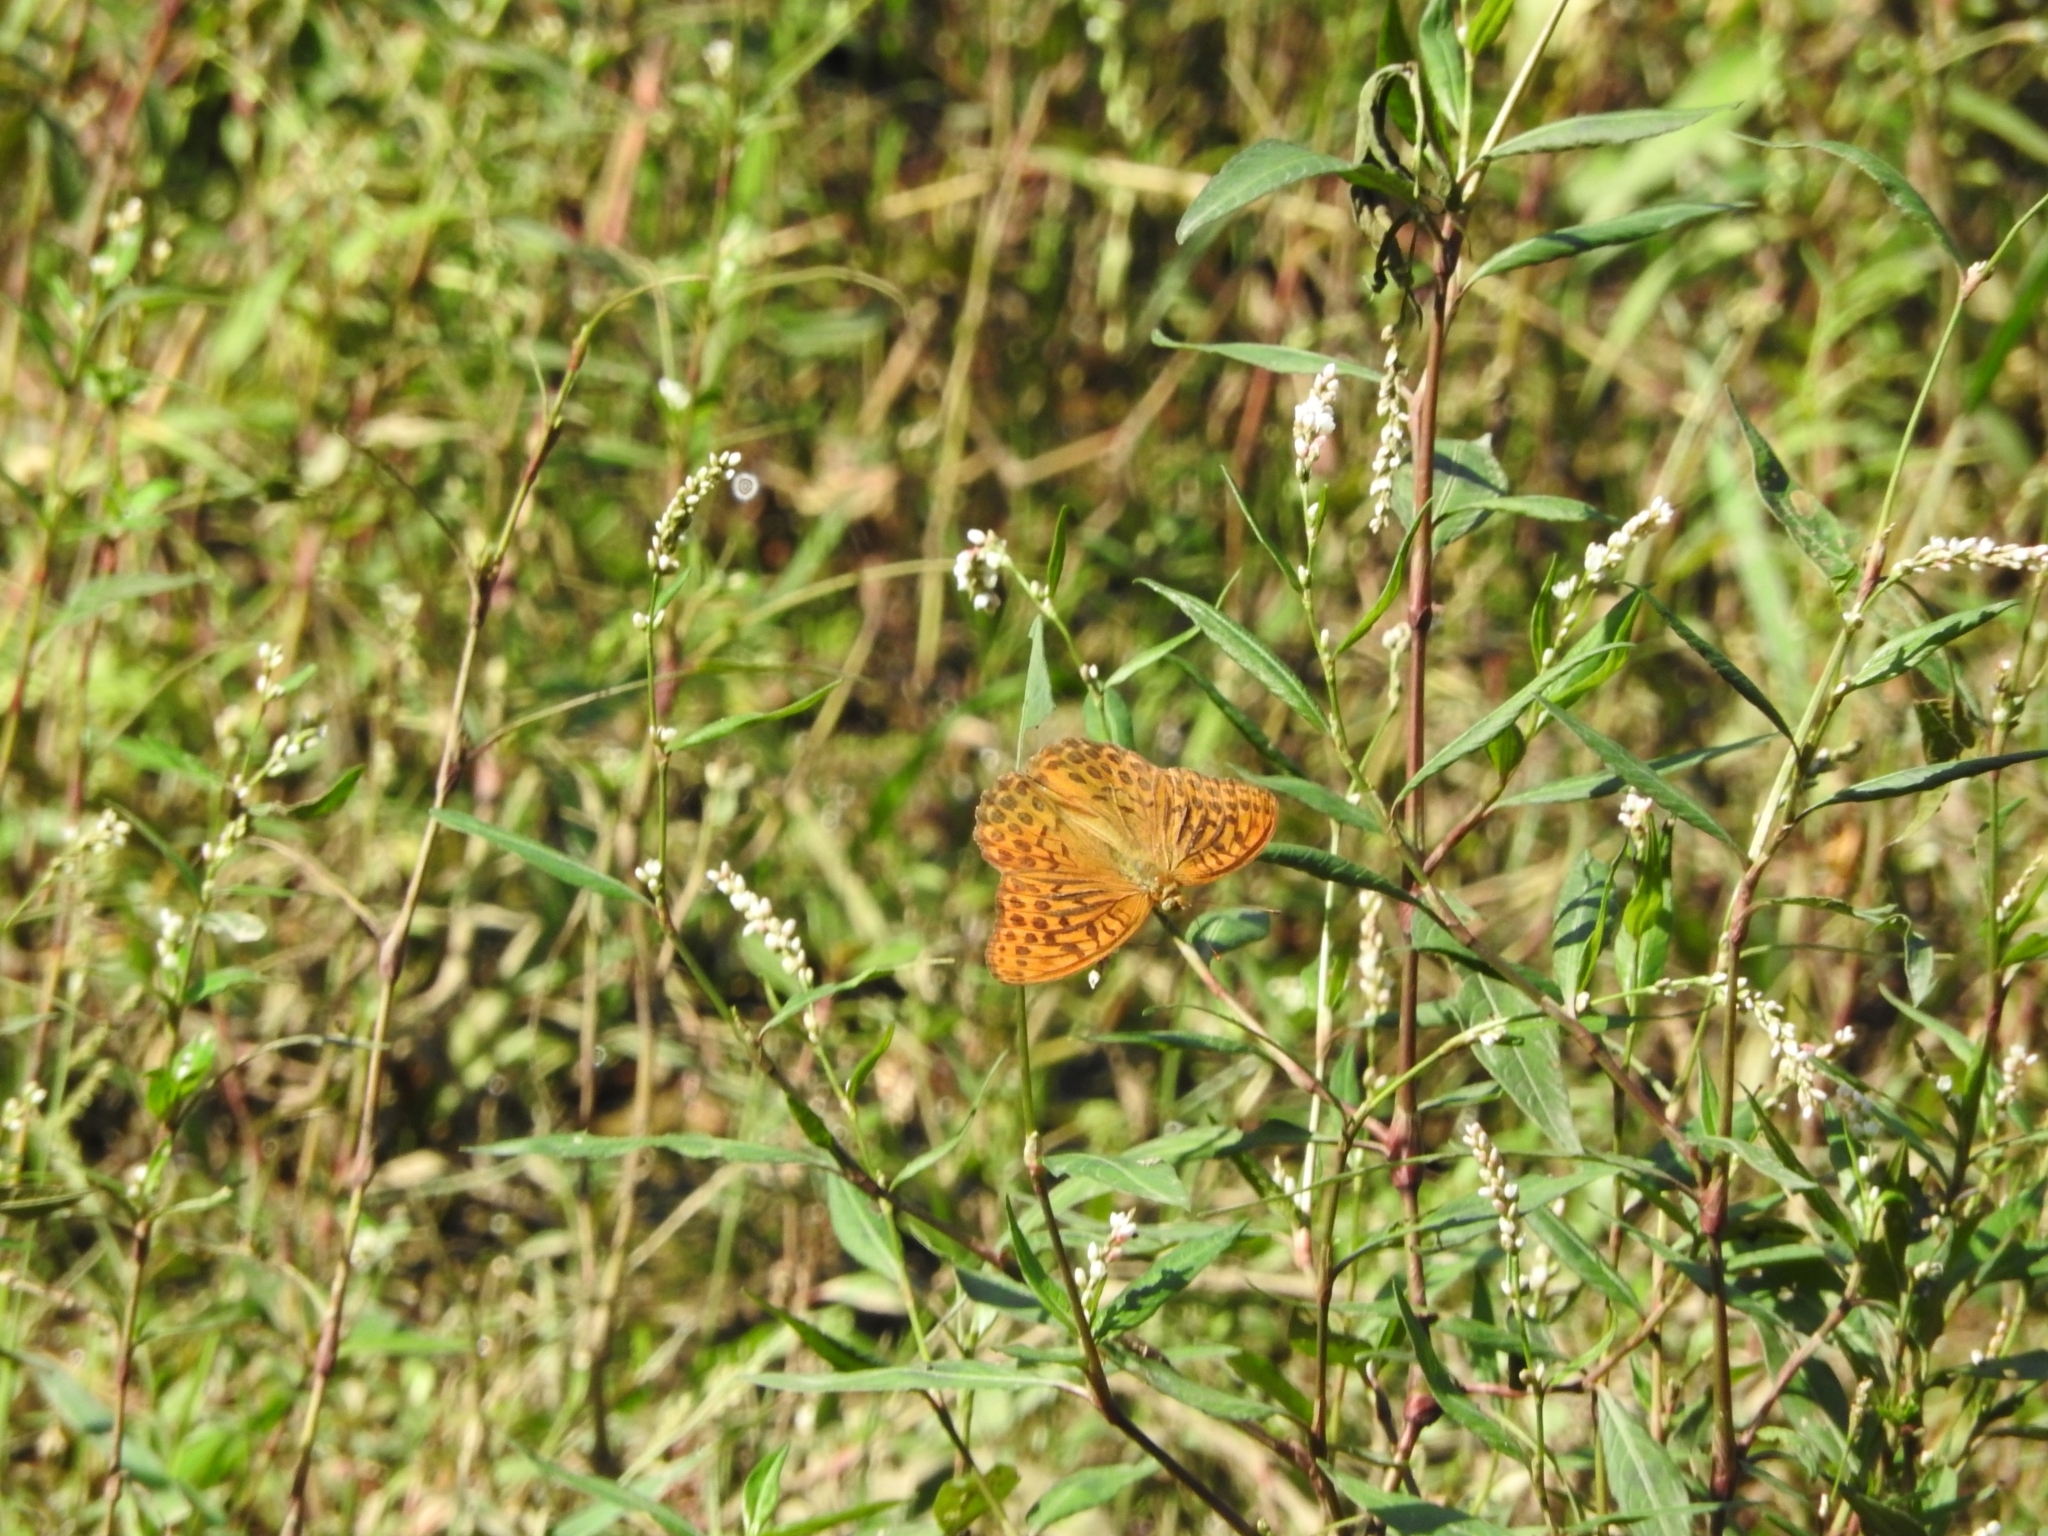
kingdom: Animalia
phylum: Arthropoda
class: Insecta
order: Lepidoptera
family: Nymphalidae
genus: Argynnis
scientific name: Argynnis paphia
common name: Silver-washed fritillary
